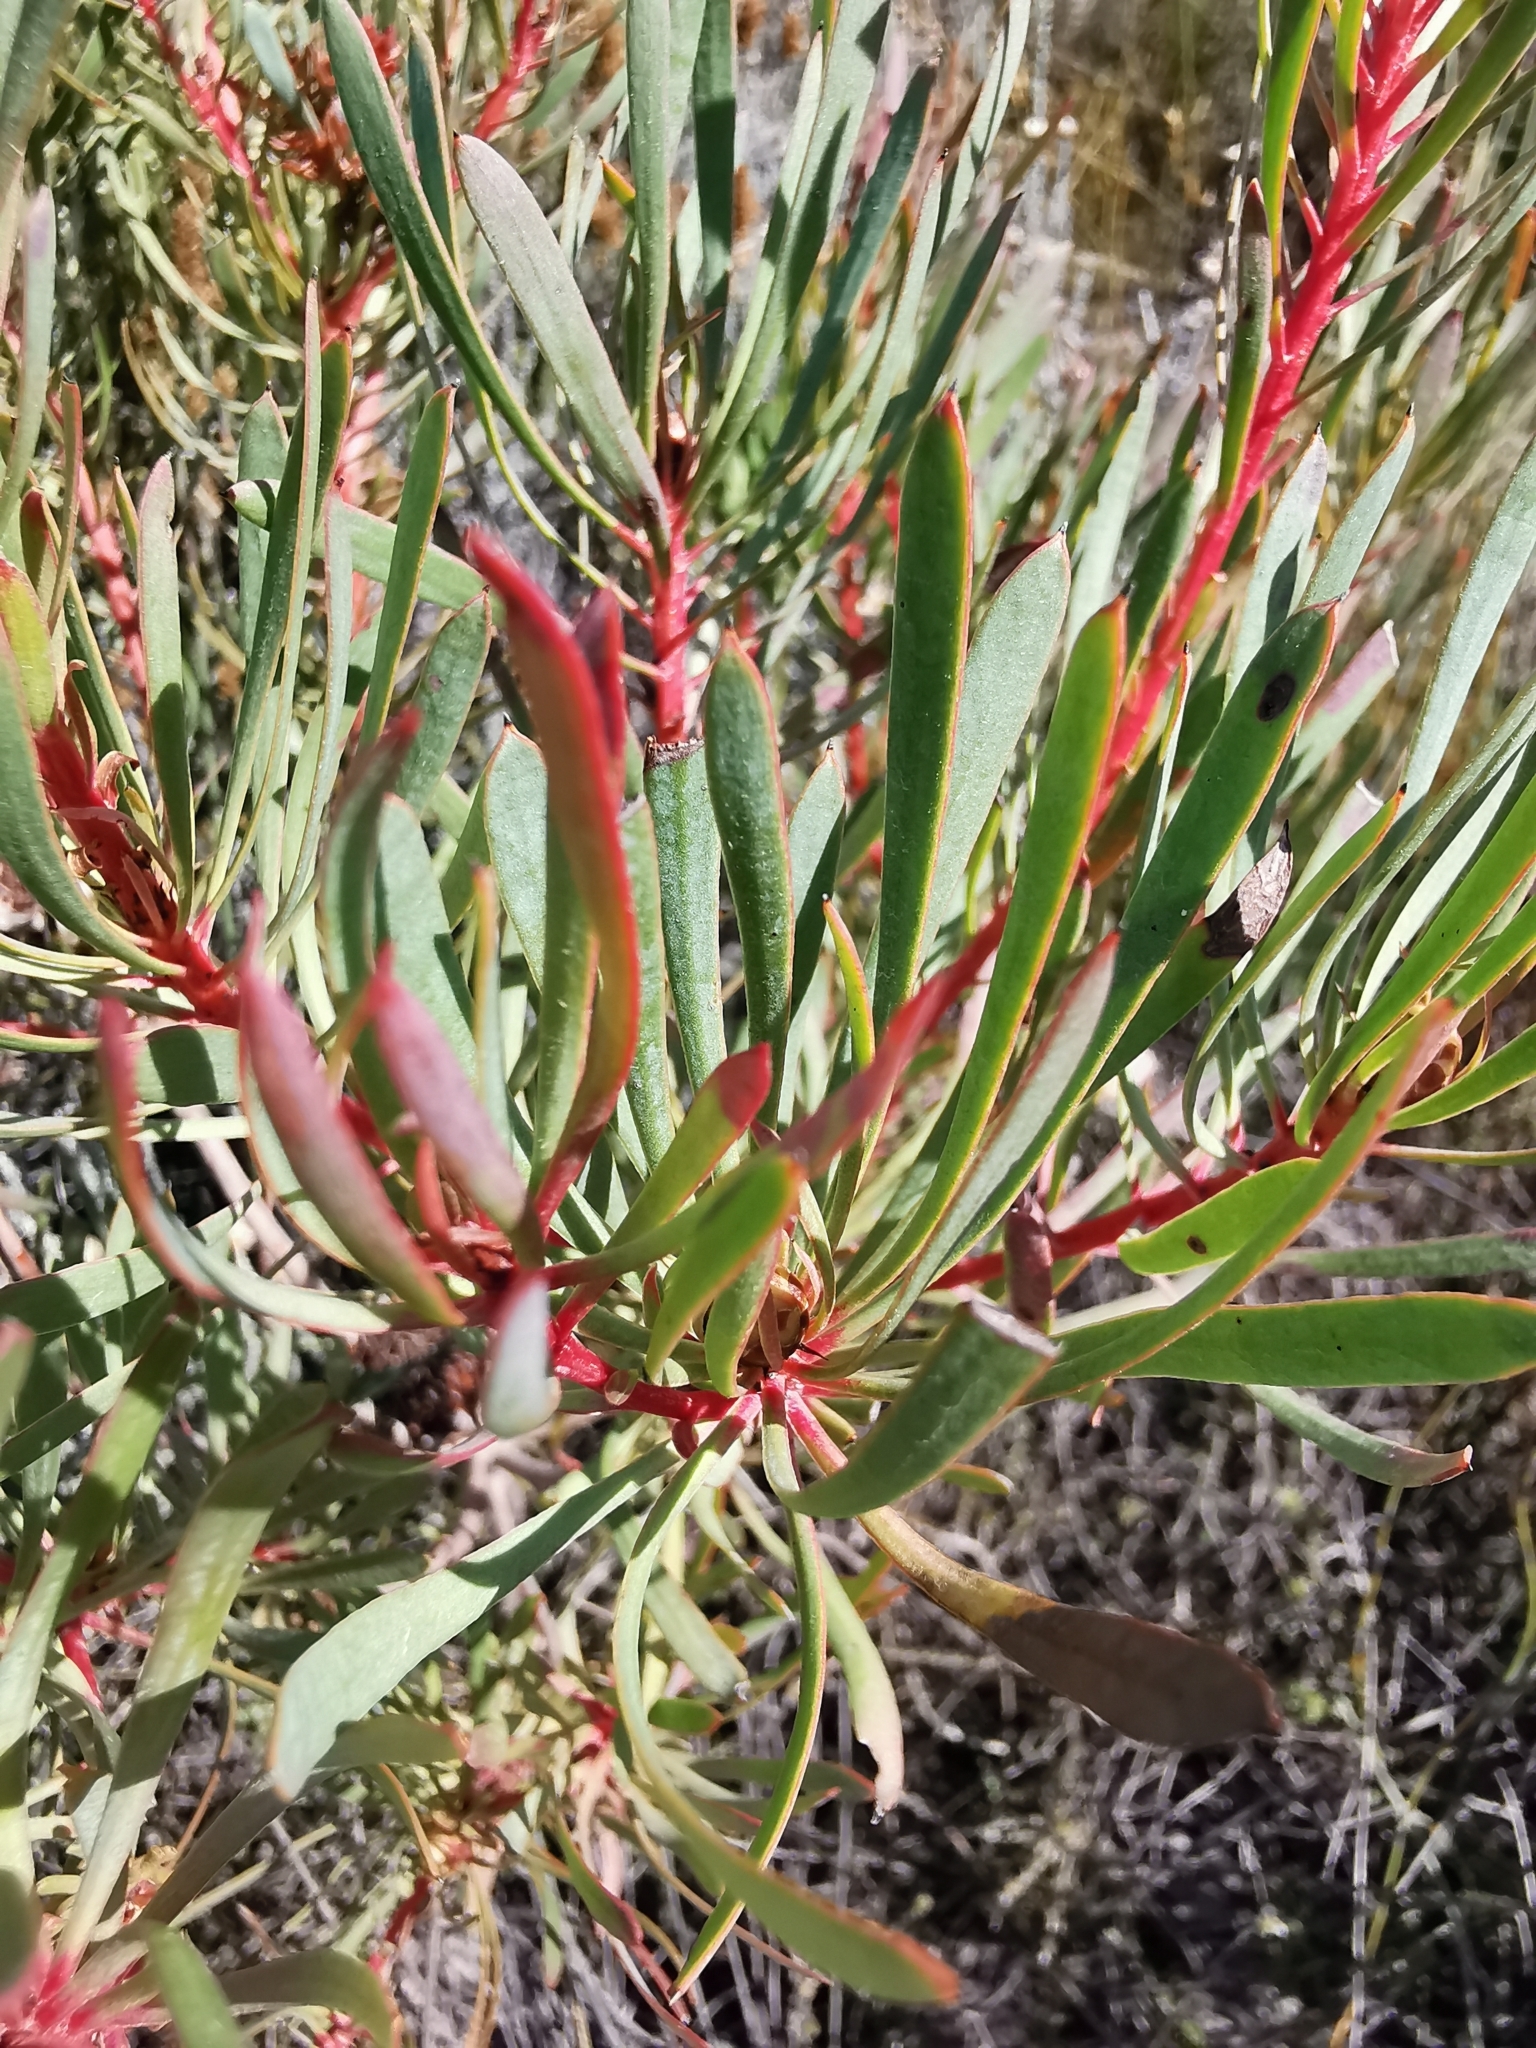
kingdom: Plantae
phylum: Tracheophyta
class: Magnoliopsida
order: Proteales
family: Proteaceae
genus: Protea
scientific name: Protea scolymocephala
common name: Thistle sugarbush
